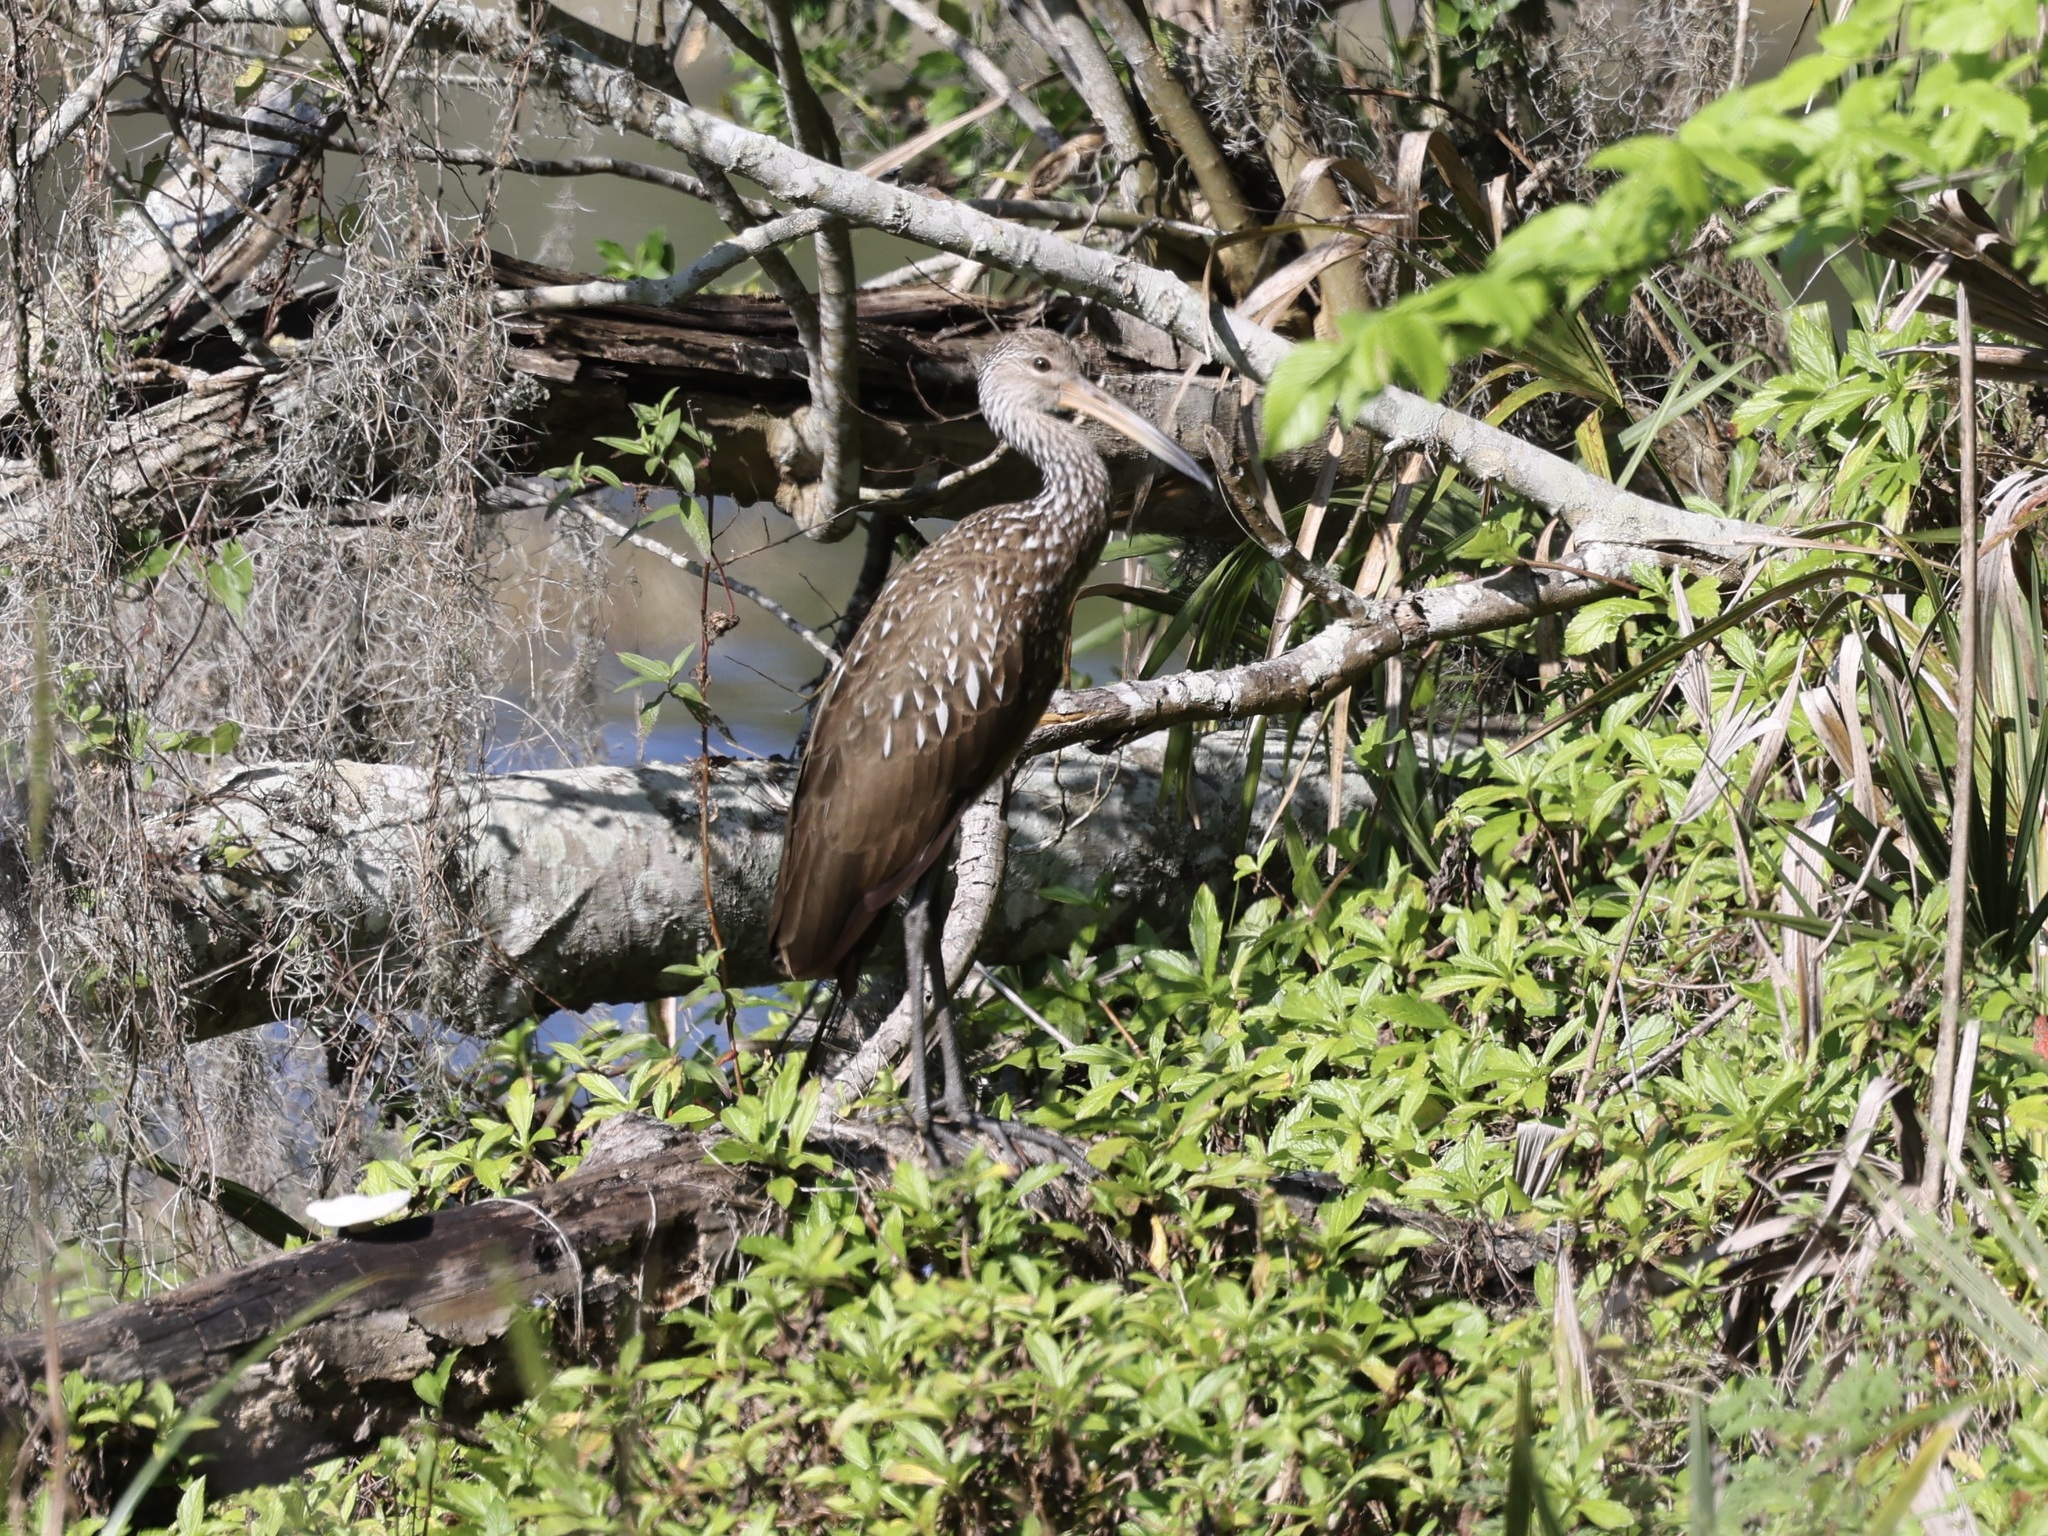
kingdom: Animalia
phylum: Chordata
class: Aves
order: Gruiformes
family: Aramidae
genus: Aramus
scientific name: Aramus guarauna
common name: Limpkin
